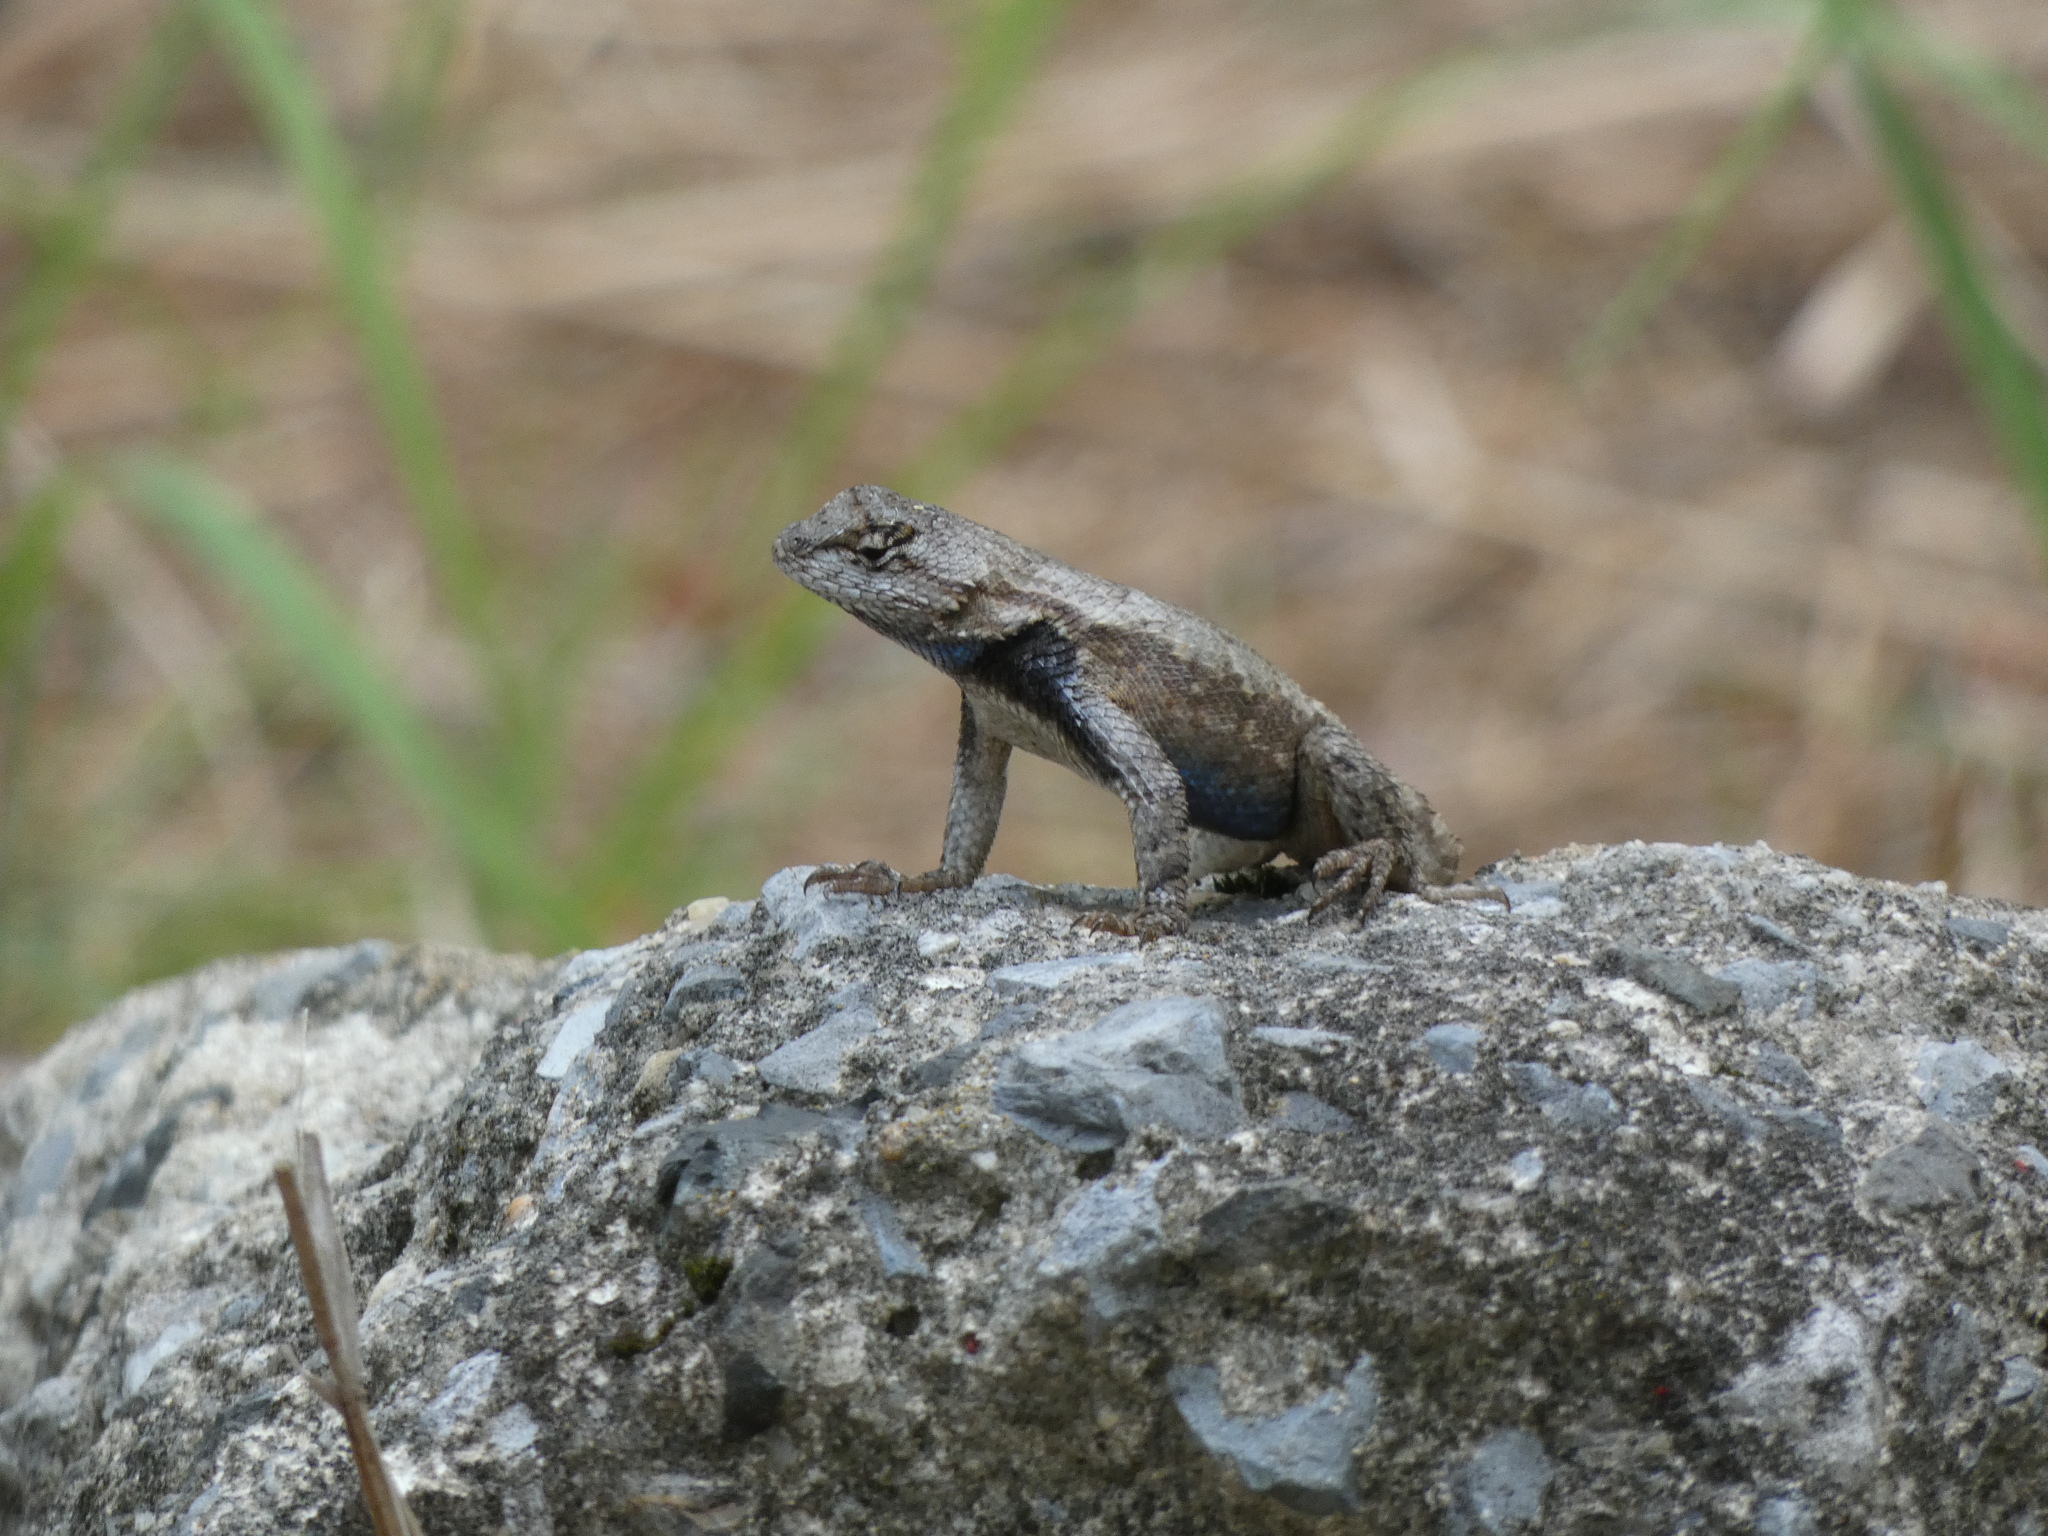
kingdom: Animalia
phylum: Chordata
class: Squamata
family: Phrynosomatidae
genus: Sceloporus
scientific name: Sceloporus undulatus
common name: Eastern fence lizard
